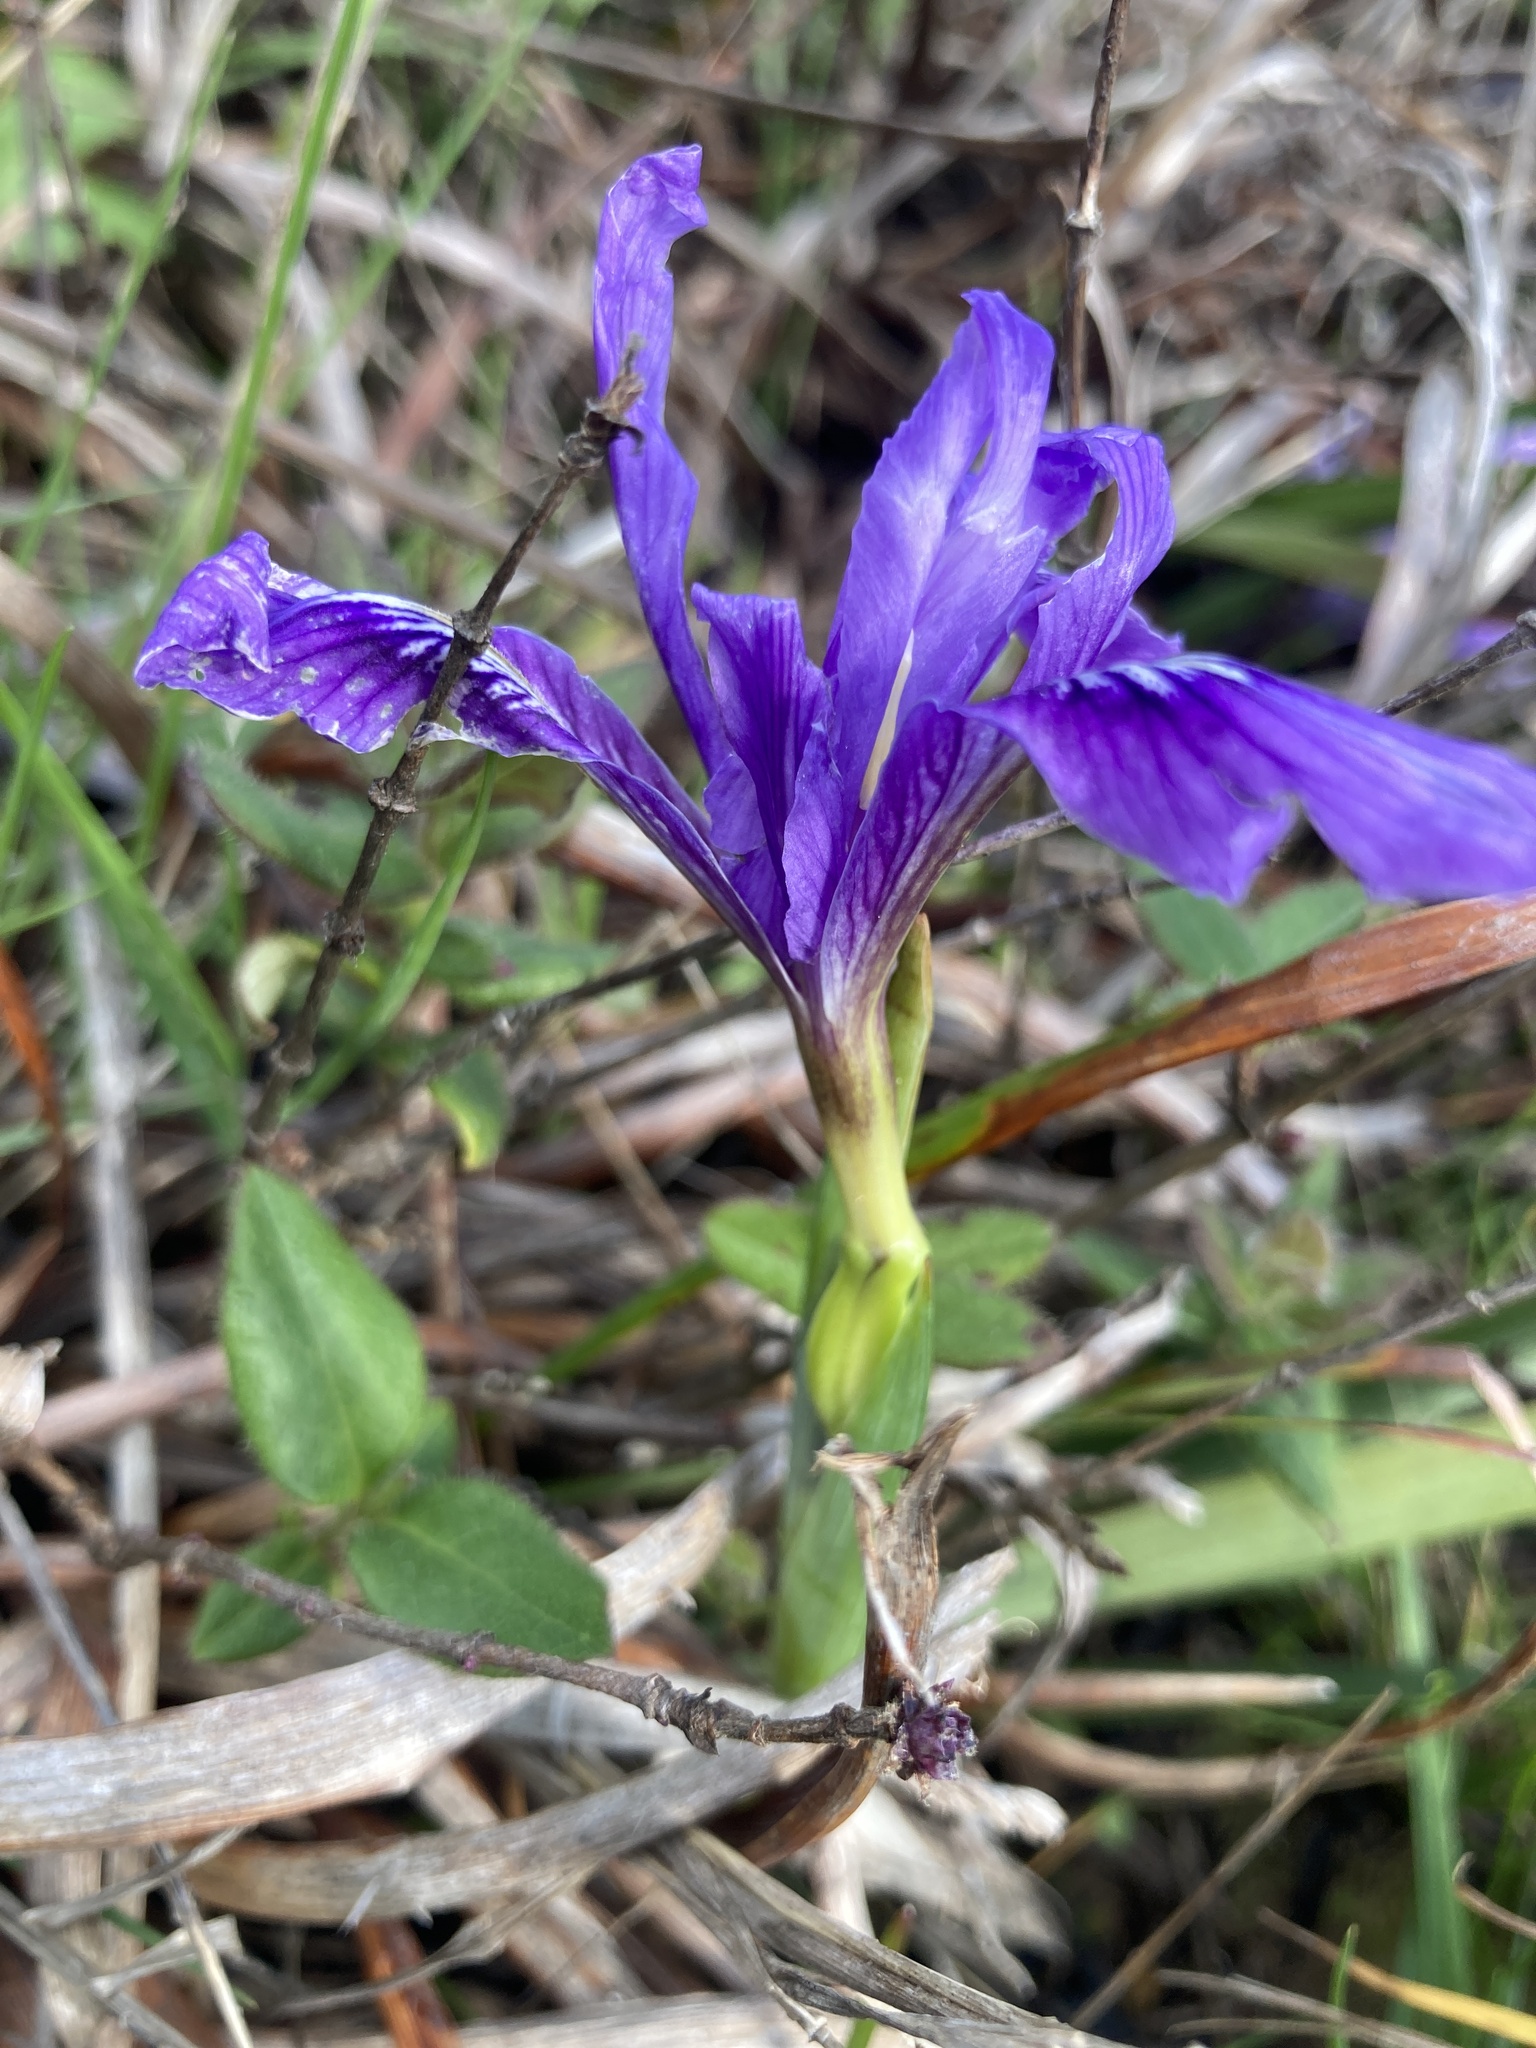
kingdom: Plantae
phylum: Tracheophyta
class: Liliopsida
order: Asparagales
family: Iridaceae
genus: Iris
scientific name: Iris douglasiana
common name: Marin iris
